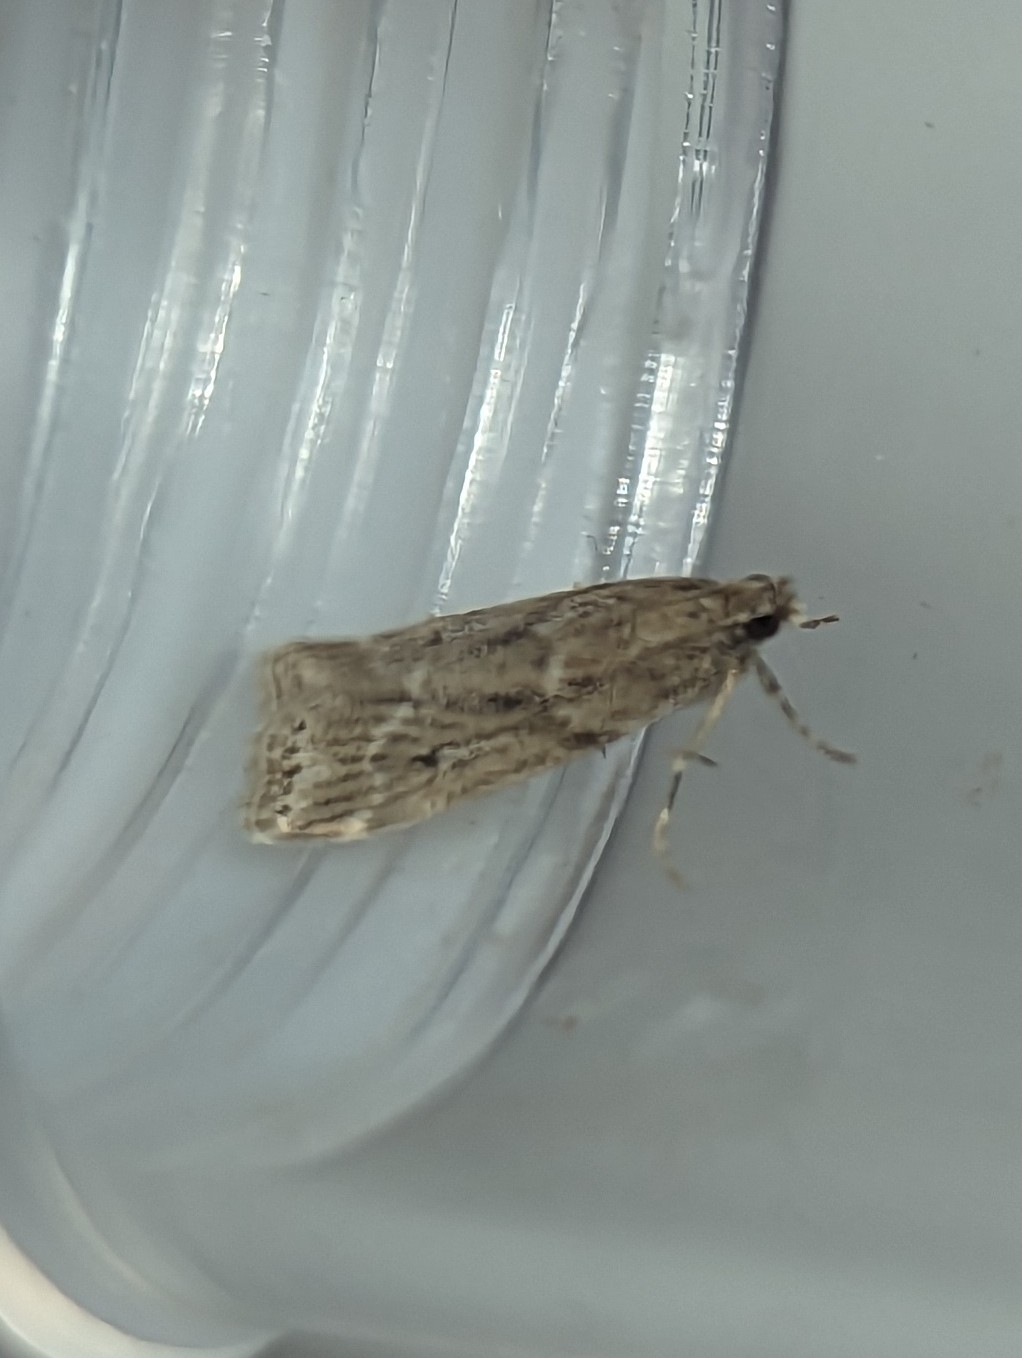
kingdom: Animalia
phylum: Arthropoda
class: Insecta
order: Lepidoptera
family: Crambidae
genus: Eudonia
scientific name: Eudonia truncicolella
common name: Ground-moss grey
